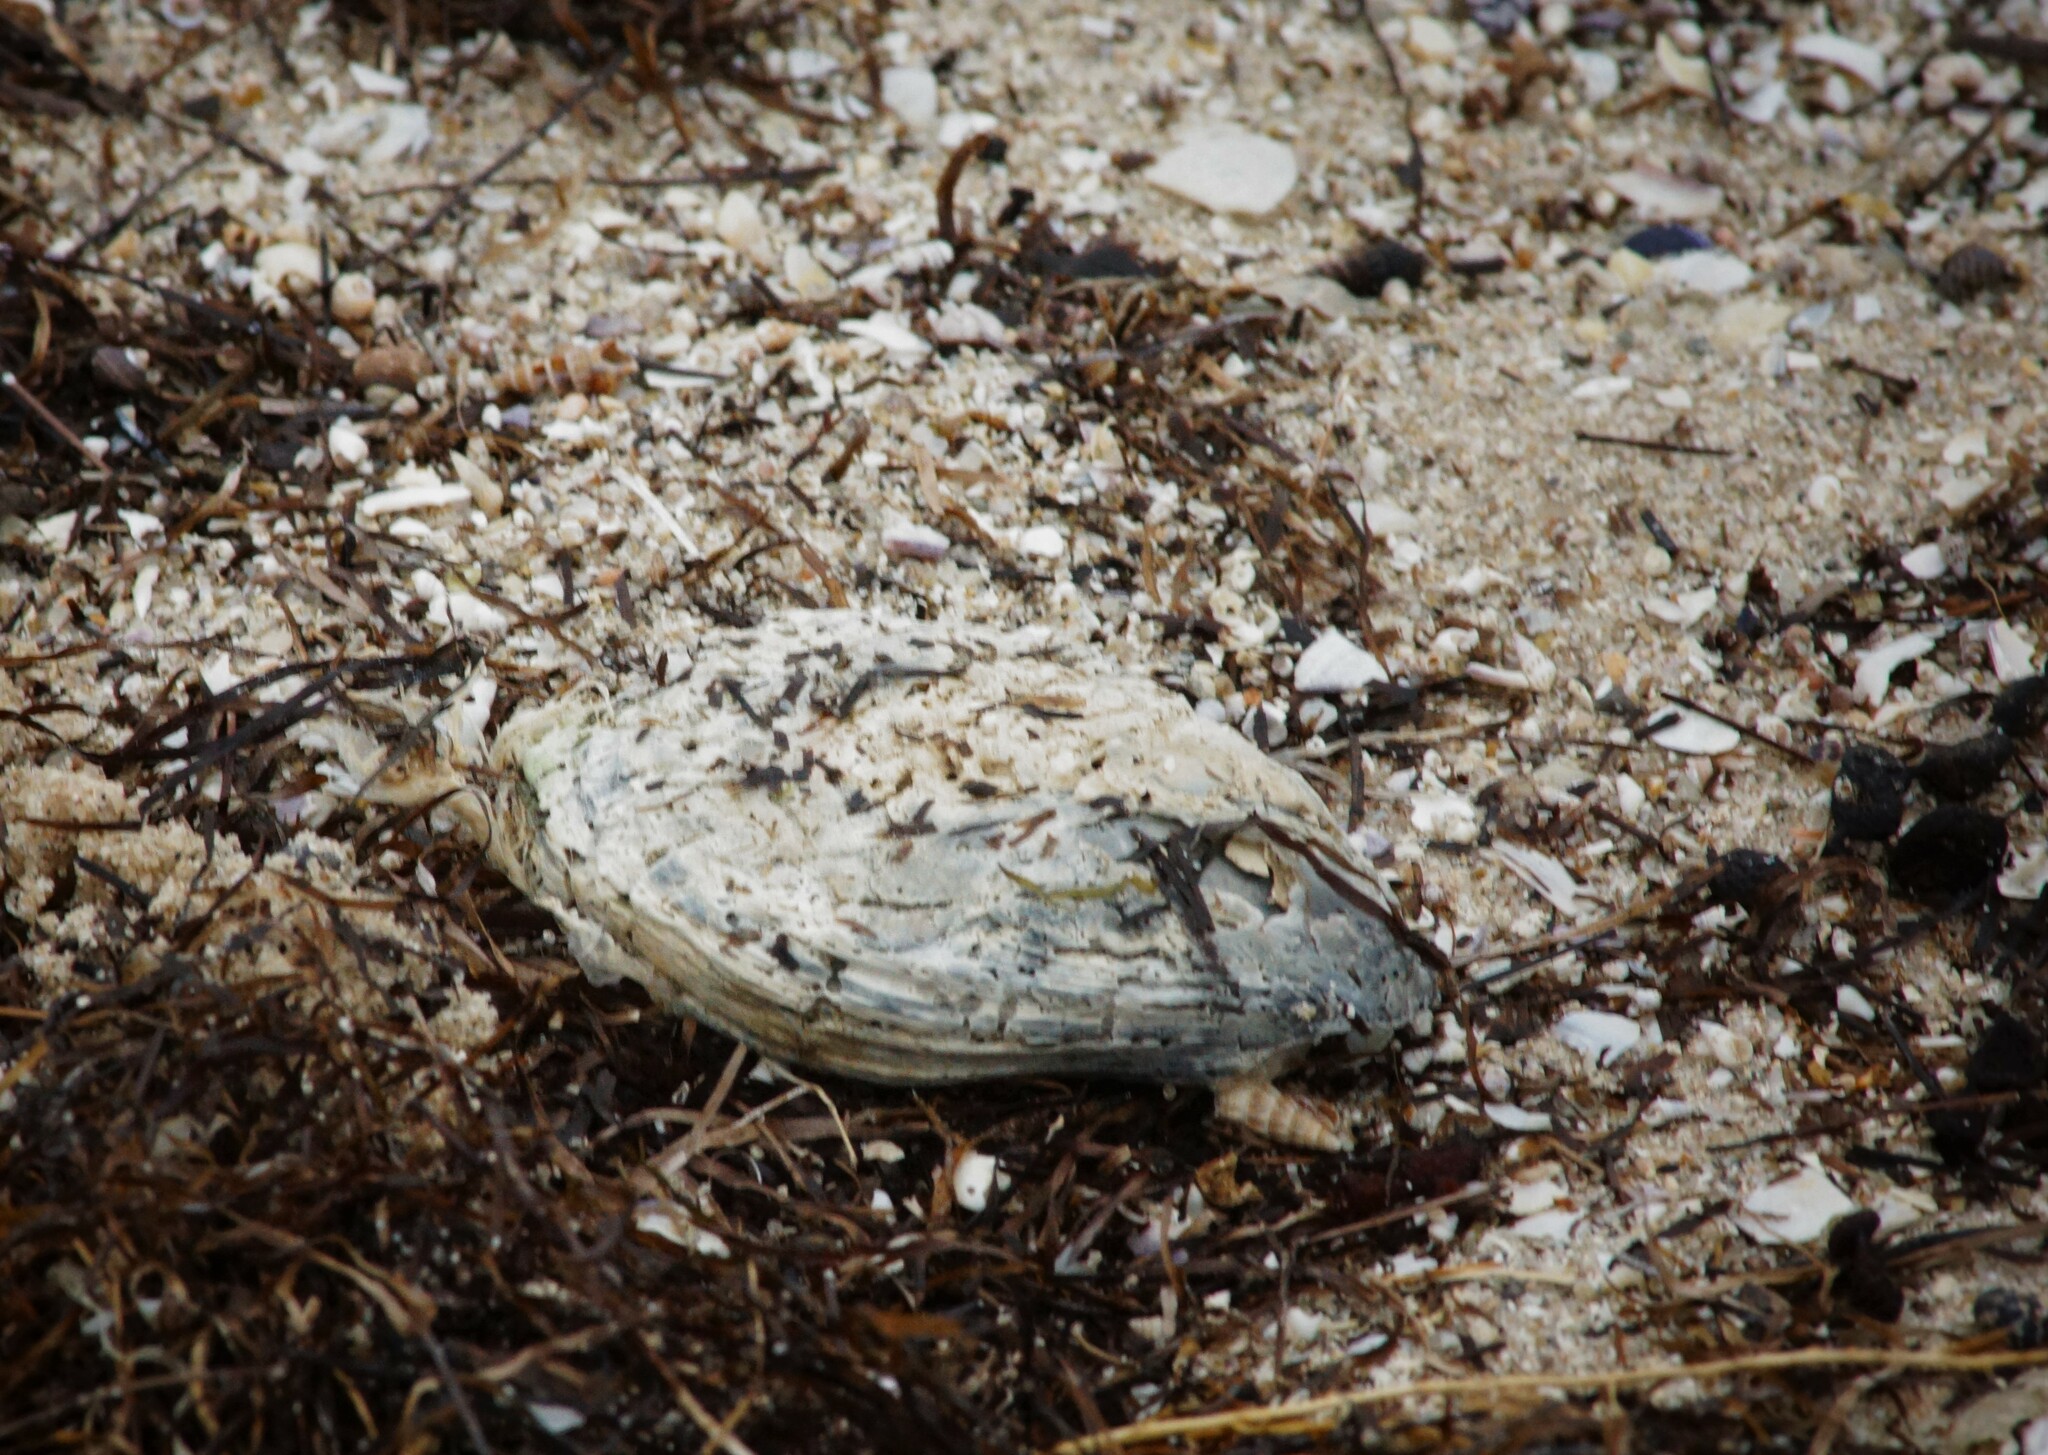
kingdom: Animalia
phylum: Mollusca
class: Bivalvia
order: Ostreida
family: Ostreidae
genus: Ostrea
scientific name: Ostrea angasi
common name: Angasi oyster
